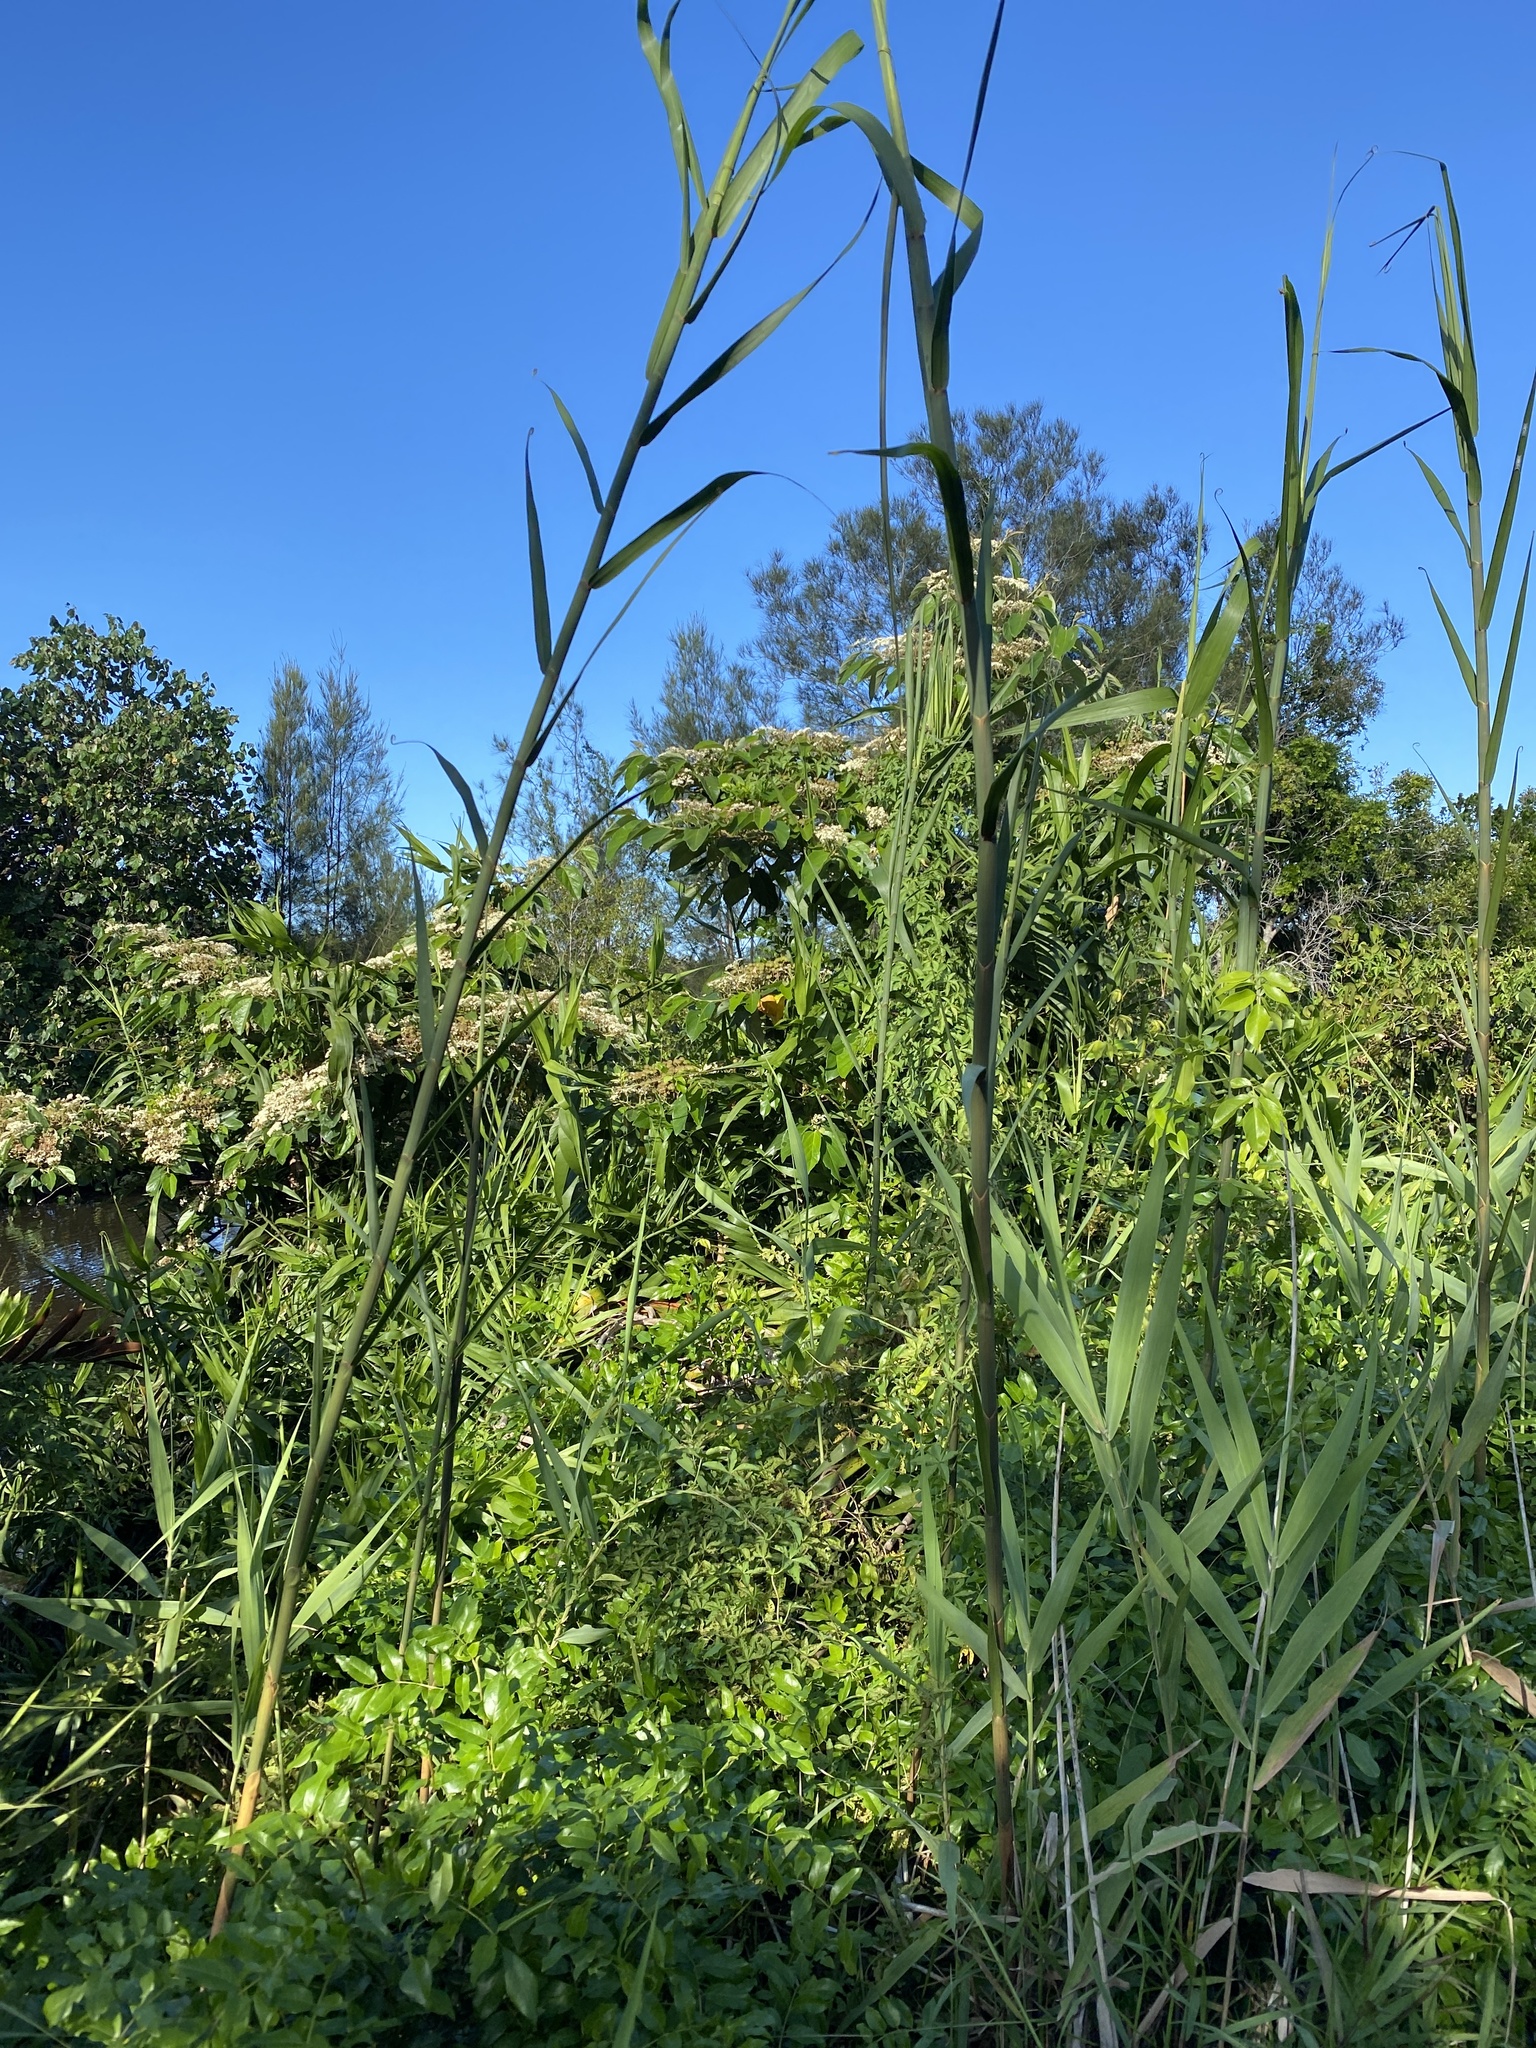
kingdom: Plantae
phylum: Tracheophyta
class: Liliopsida
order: Poales
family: Flagellariaceae
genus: Flagellaria
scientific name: Flagellaria indica
